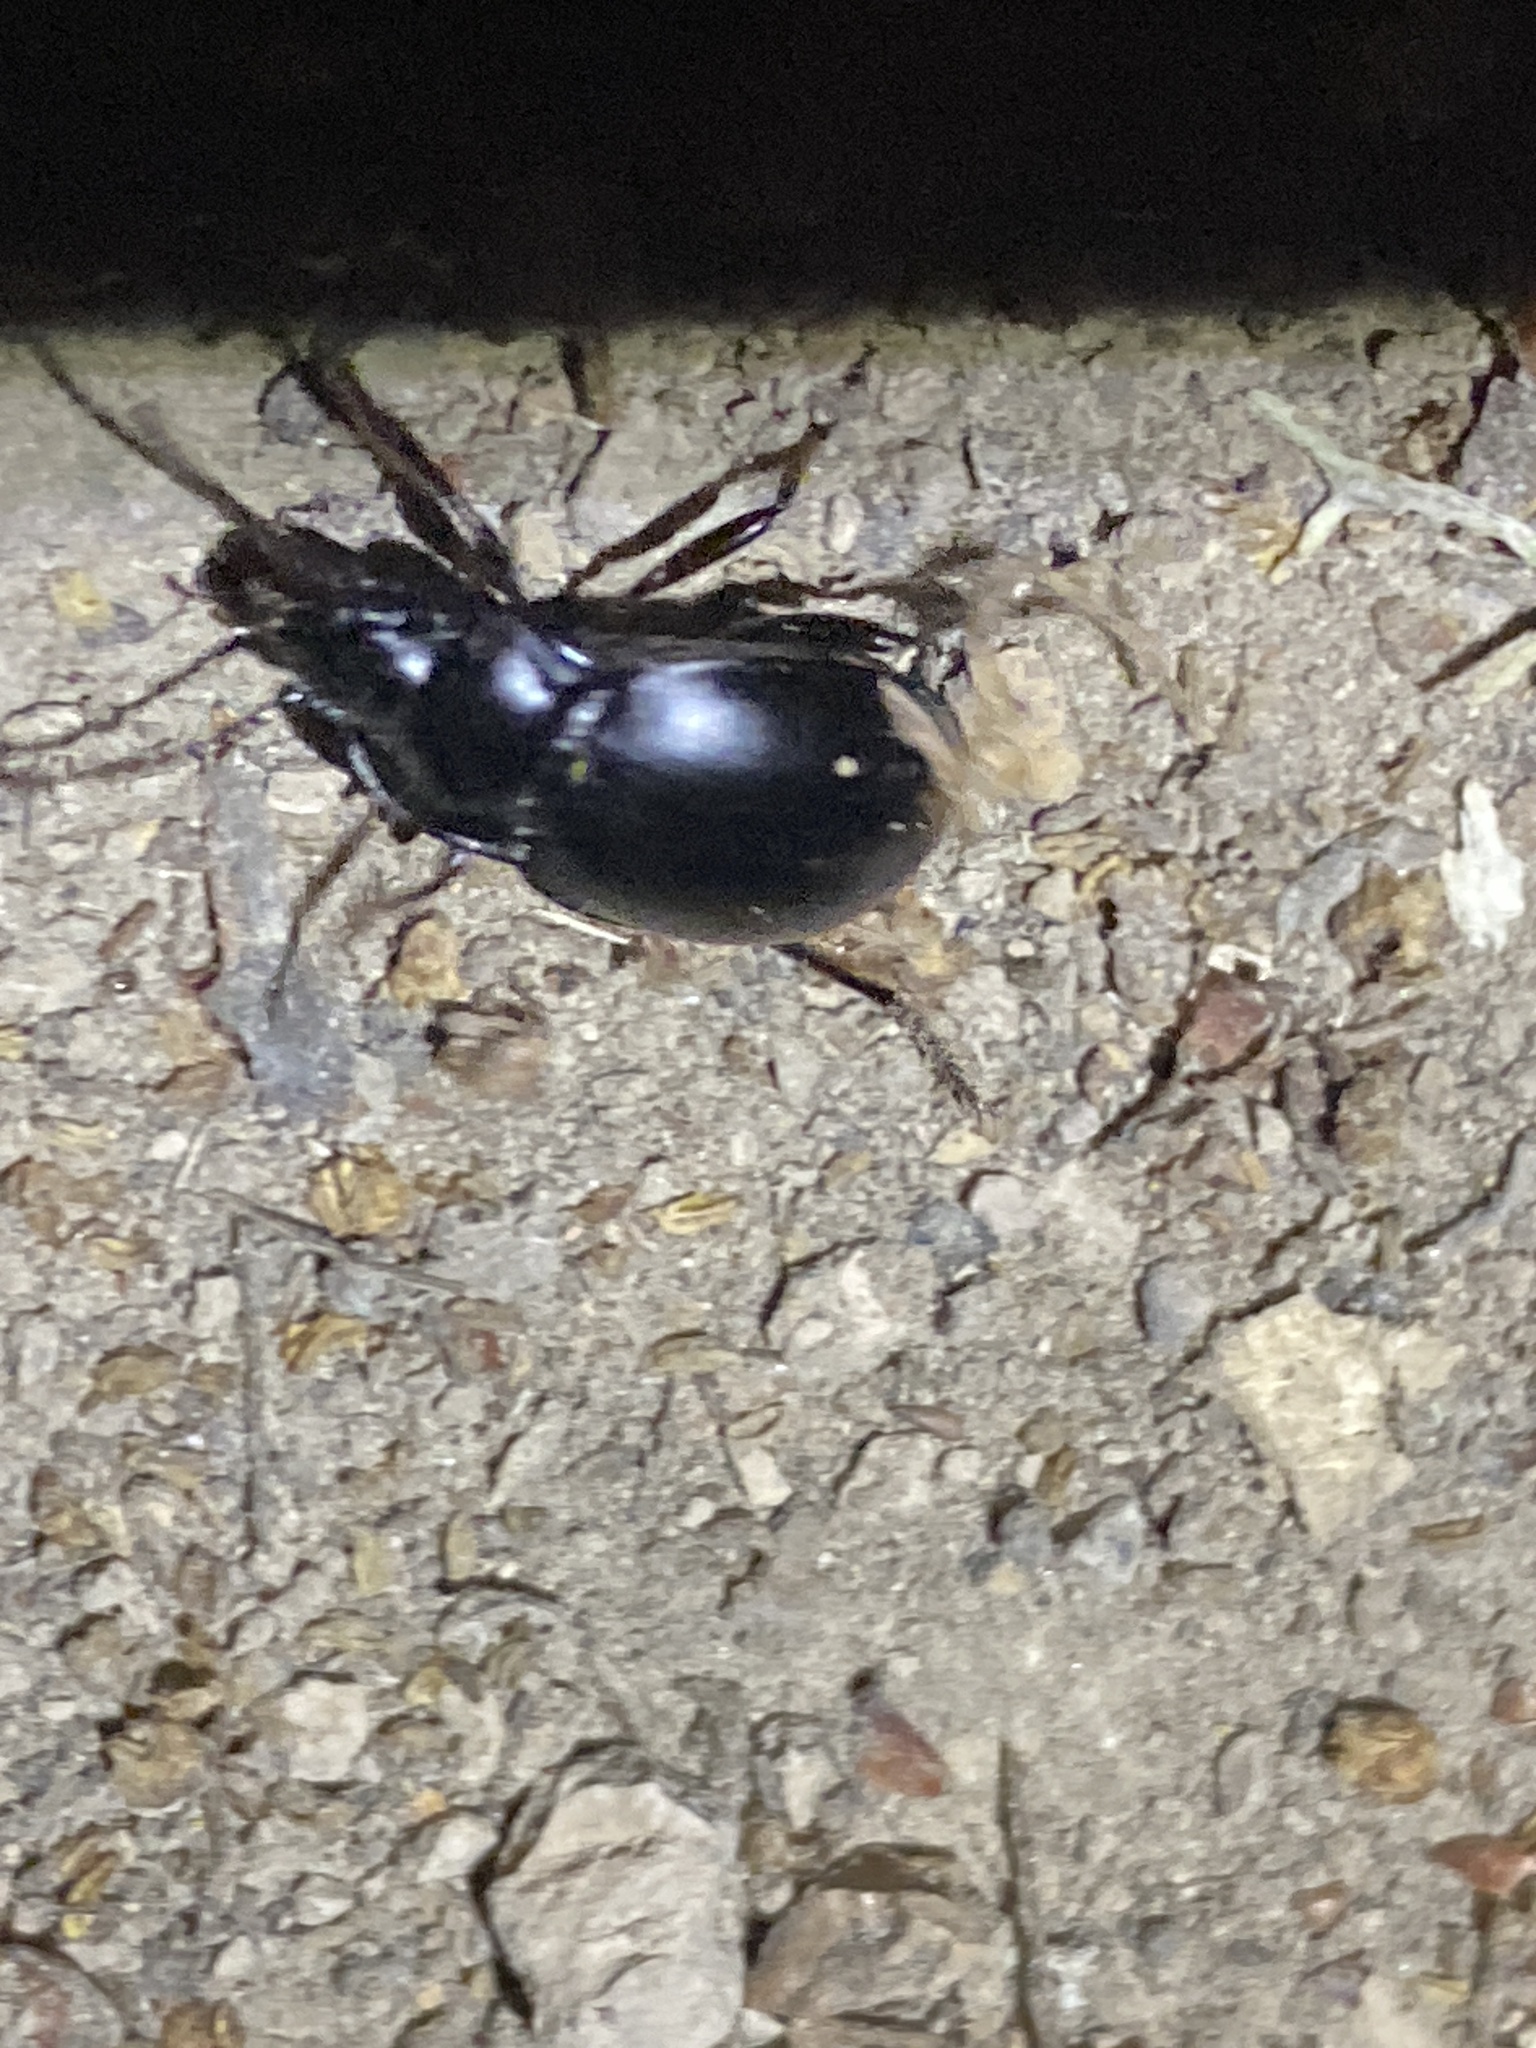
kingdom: Animalia
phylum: Arthropoda
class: Insecta
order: Coleoptera
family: Carabidae
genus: Metrius
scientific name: Metrius contractus
